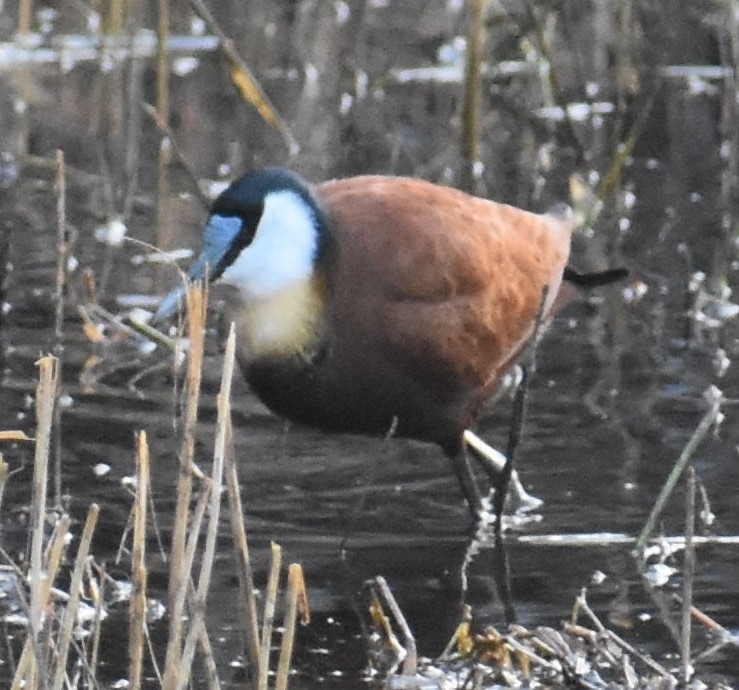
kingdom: Animalia
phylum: Chordata
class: Aves
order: Charadriiformes
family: Jacanidae
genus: Actophilornis
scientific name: Actophilornis africanus
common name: African jacana
